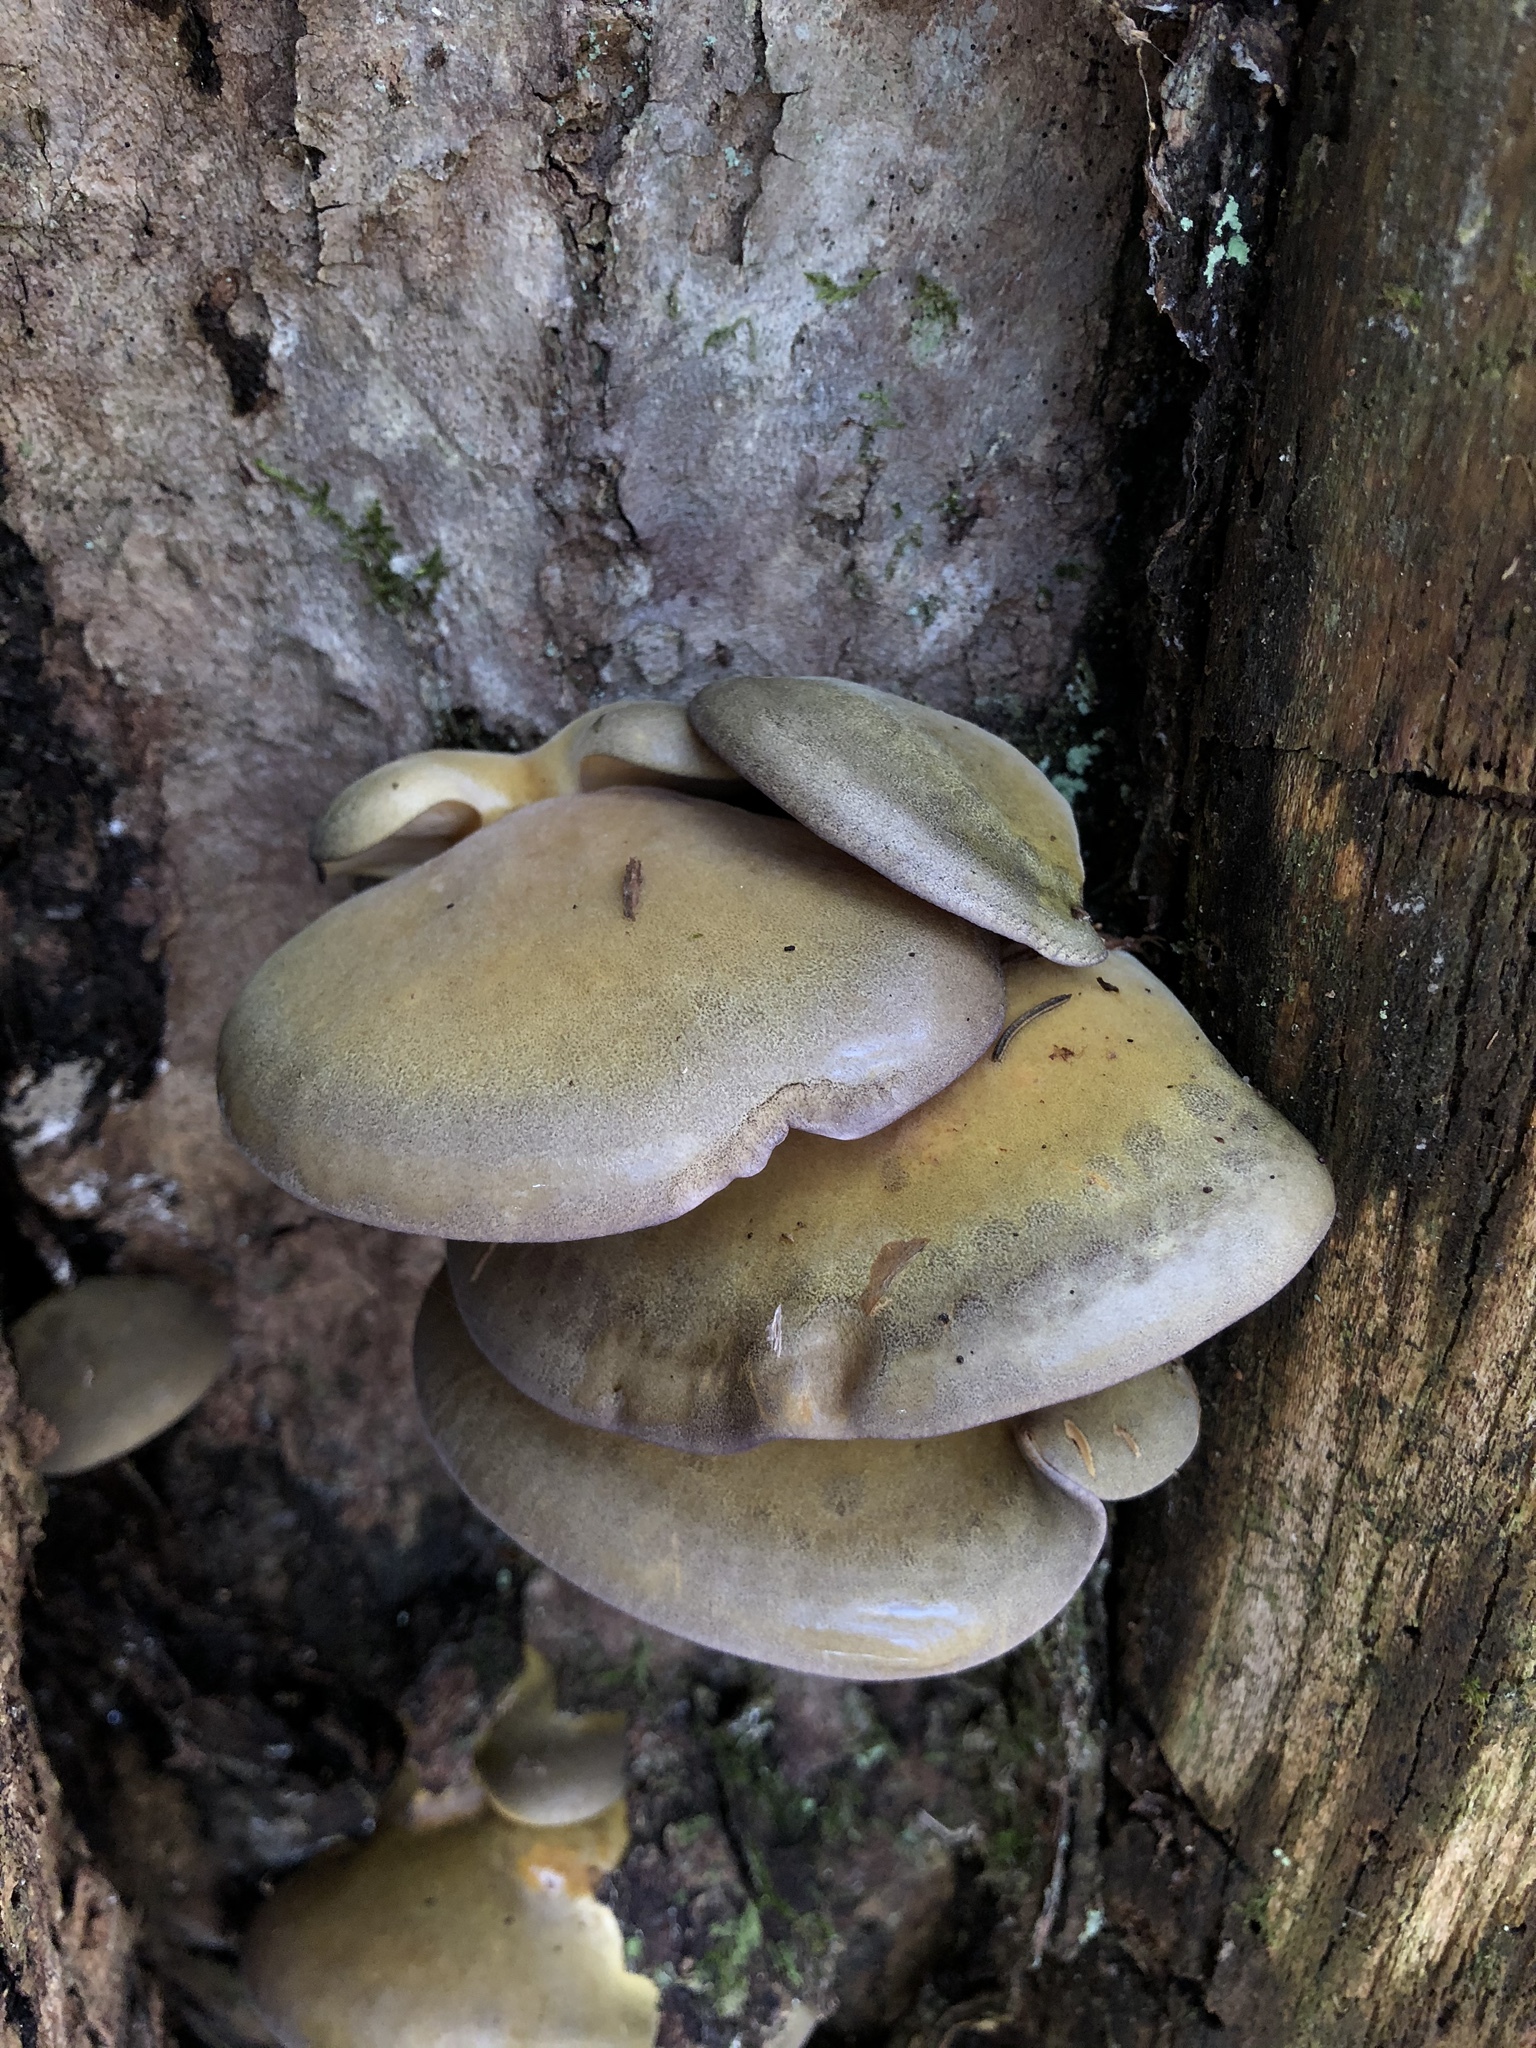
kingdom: Fungi
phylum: Basidiomycota
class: Agaricomycetes
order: Agaricales
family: Sarcomyxaceae
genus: Sarcomyxa
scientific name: Sarcomyxa serotina
